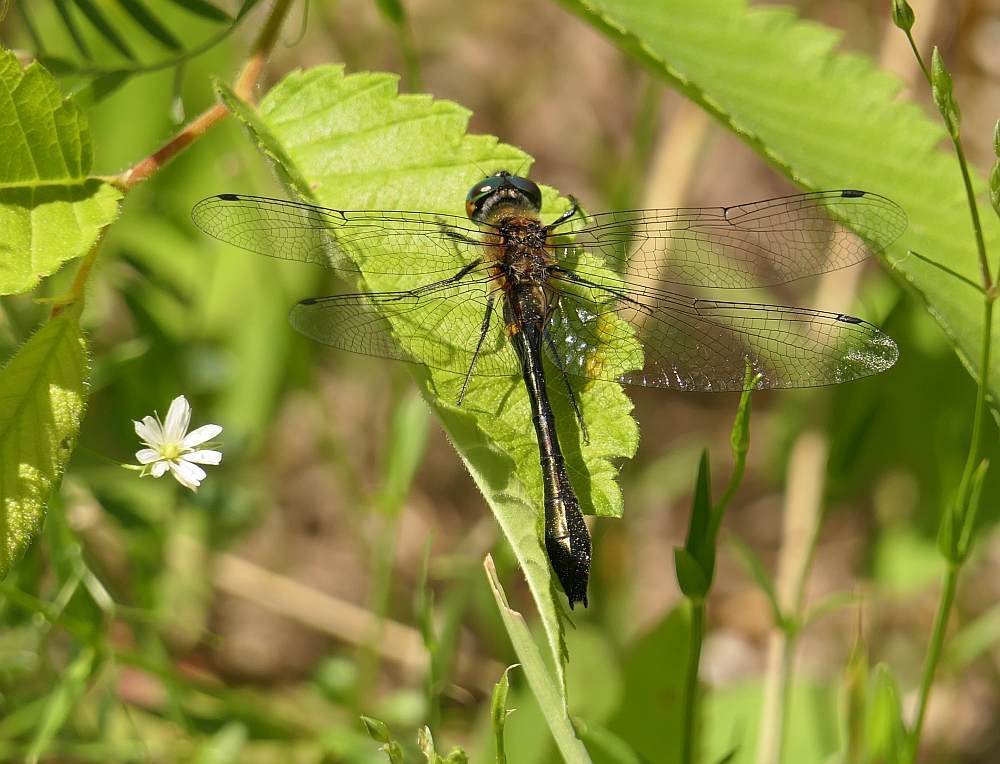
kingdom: Animalia
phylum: Arthropoda
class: Insecta
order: Odonata
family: Corduliidae
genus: Dorocordulia
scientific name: Dorocordulia libera
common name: Racket-tailed emerald
